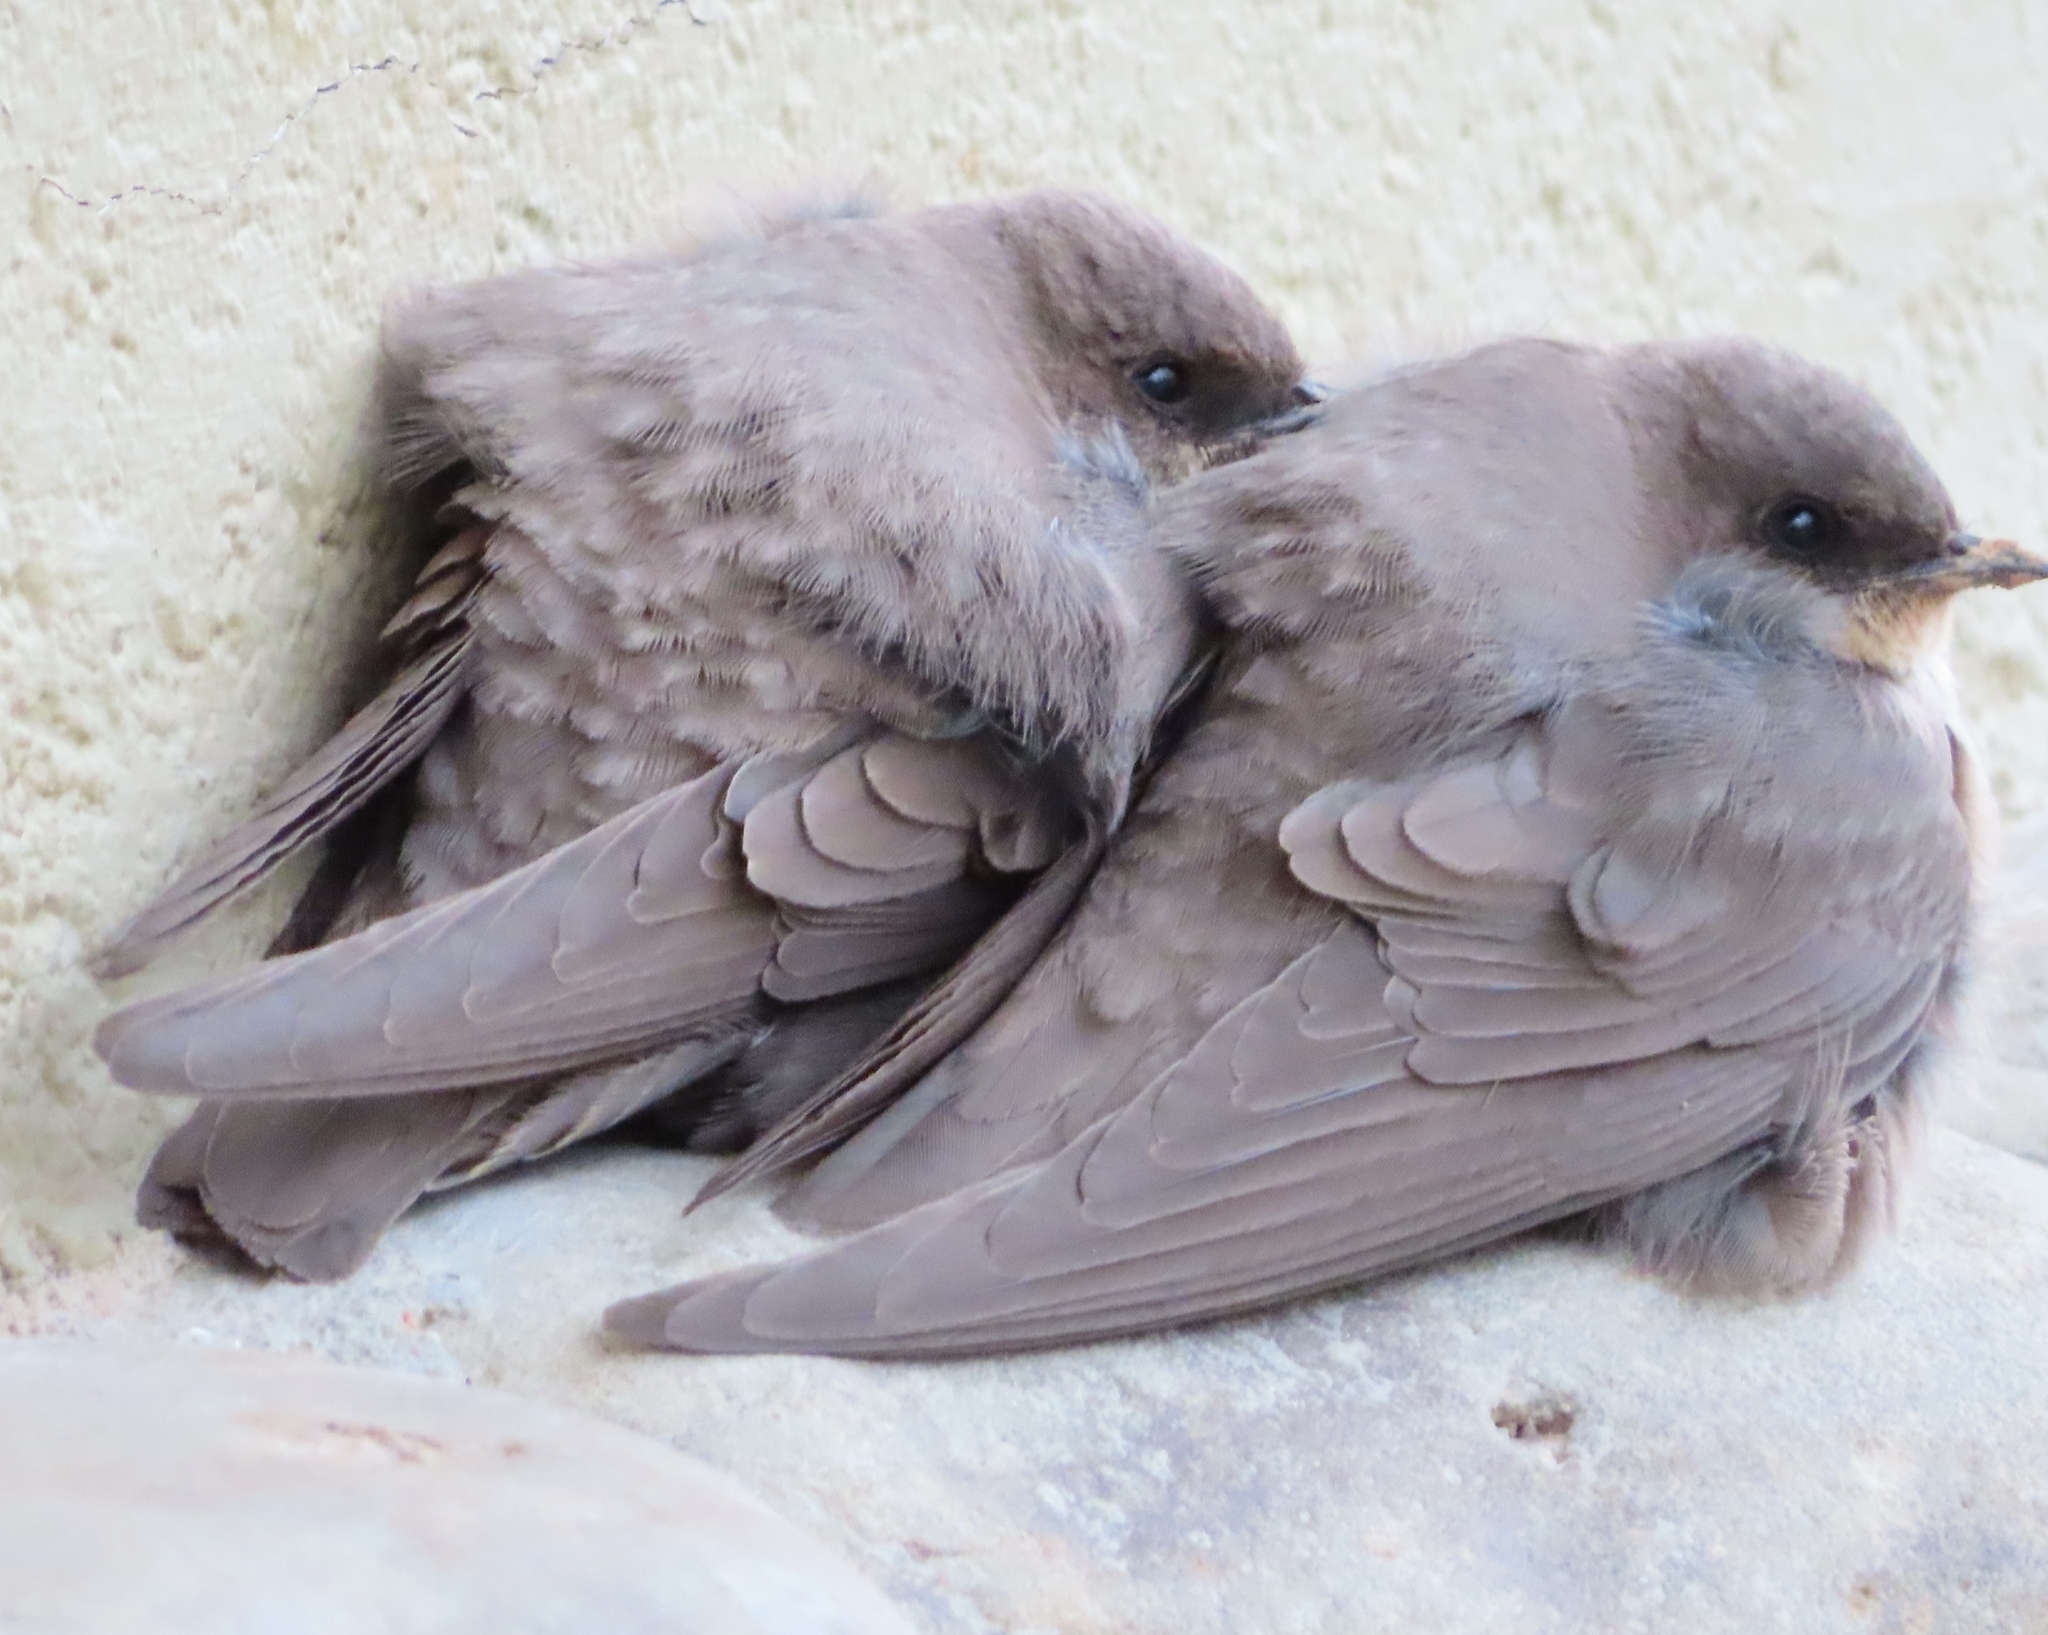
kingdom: Animalia
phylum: Chordata
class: Aves
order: Passeriformes
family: Hirundinidae
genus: Ptyonoprogne
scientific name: Ptyonoprogne fuligula
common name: Rock martin
